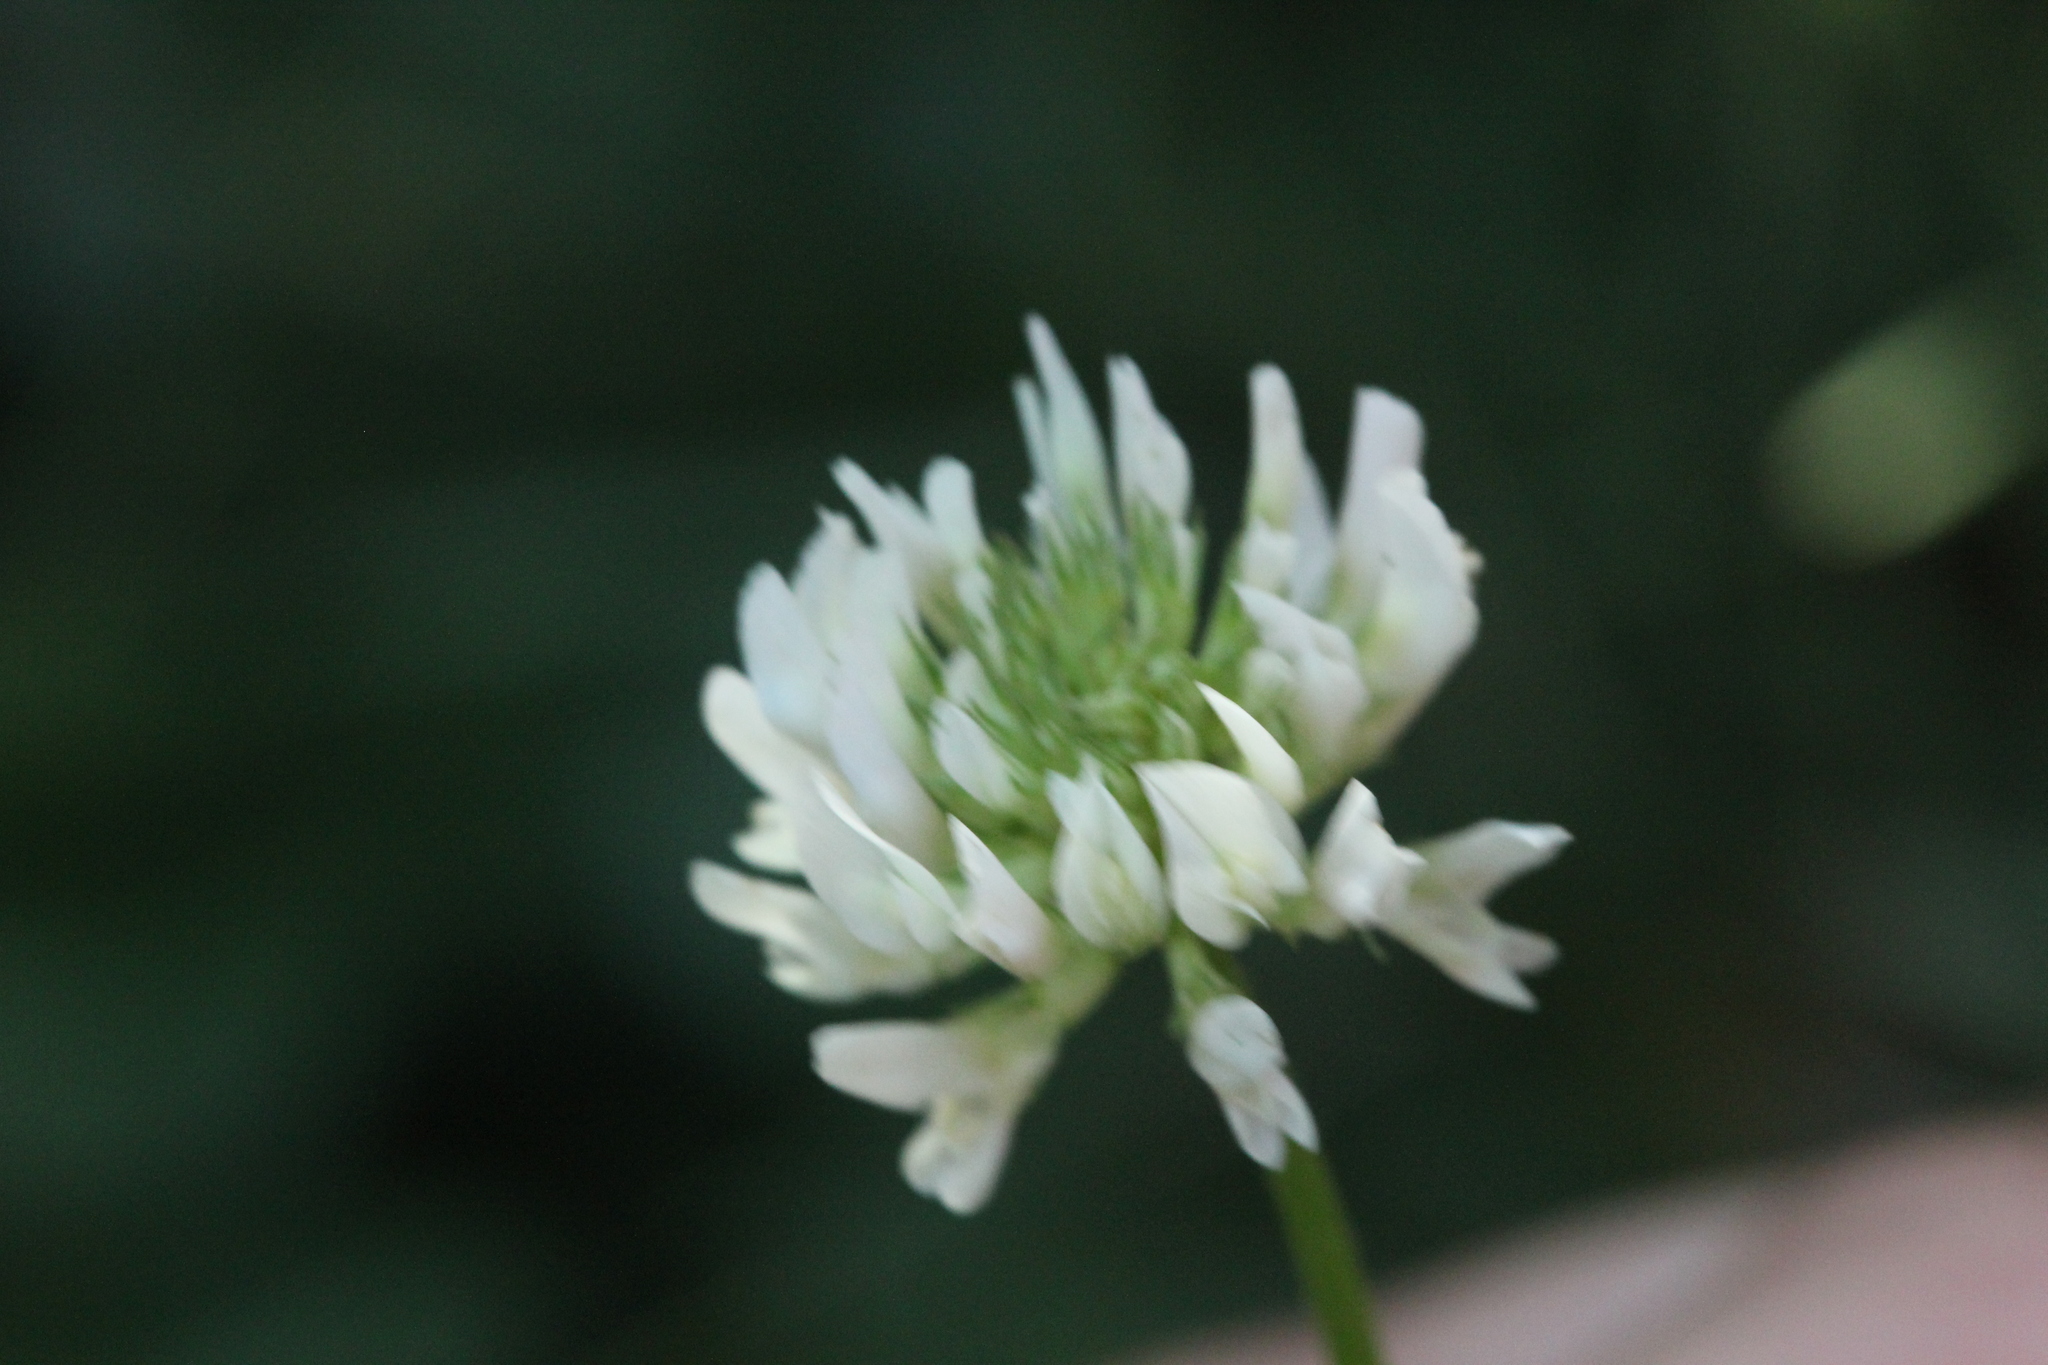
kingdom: Plantae
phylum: Tracheophyta
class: Magnoliopsida
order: Fabales
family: Fabaceae
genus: Trifolium
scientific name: Trifolium repens
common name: White clover
